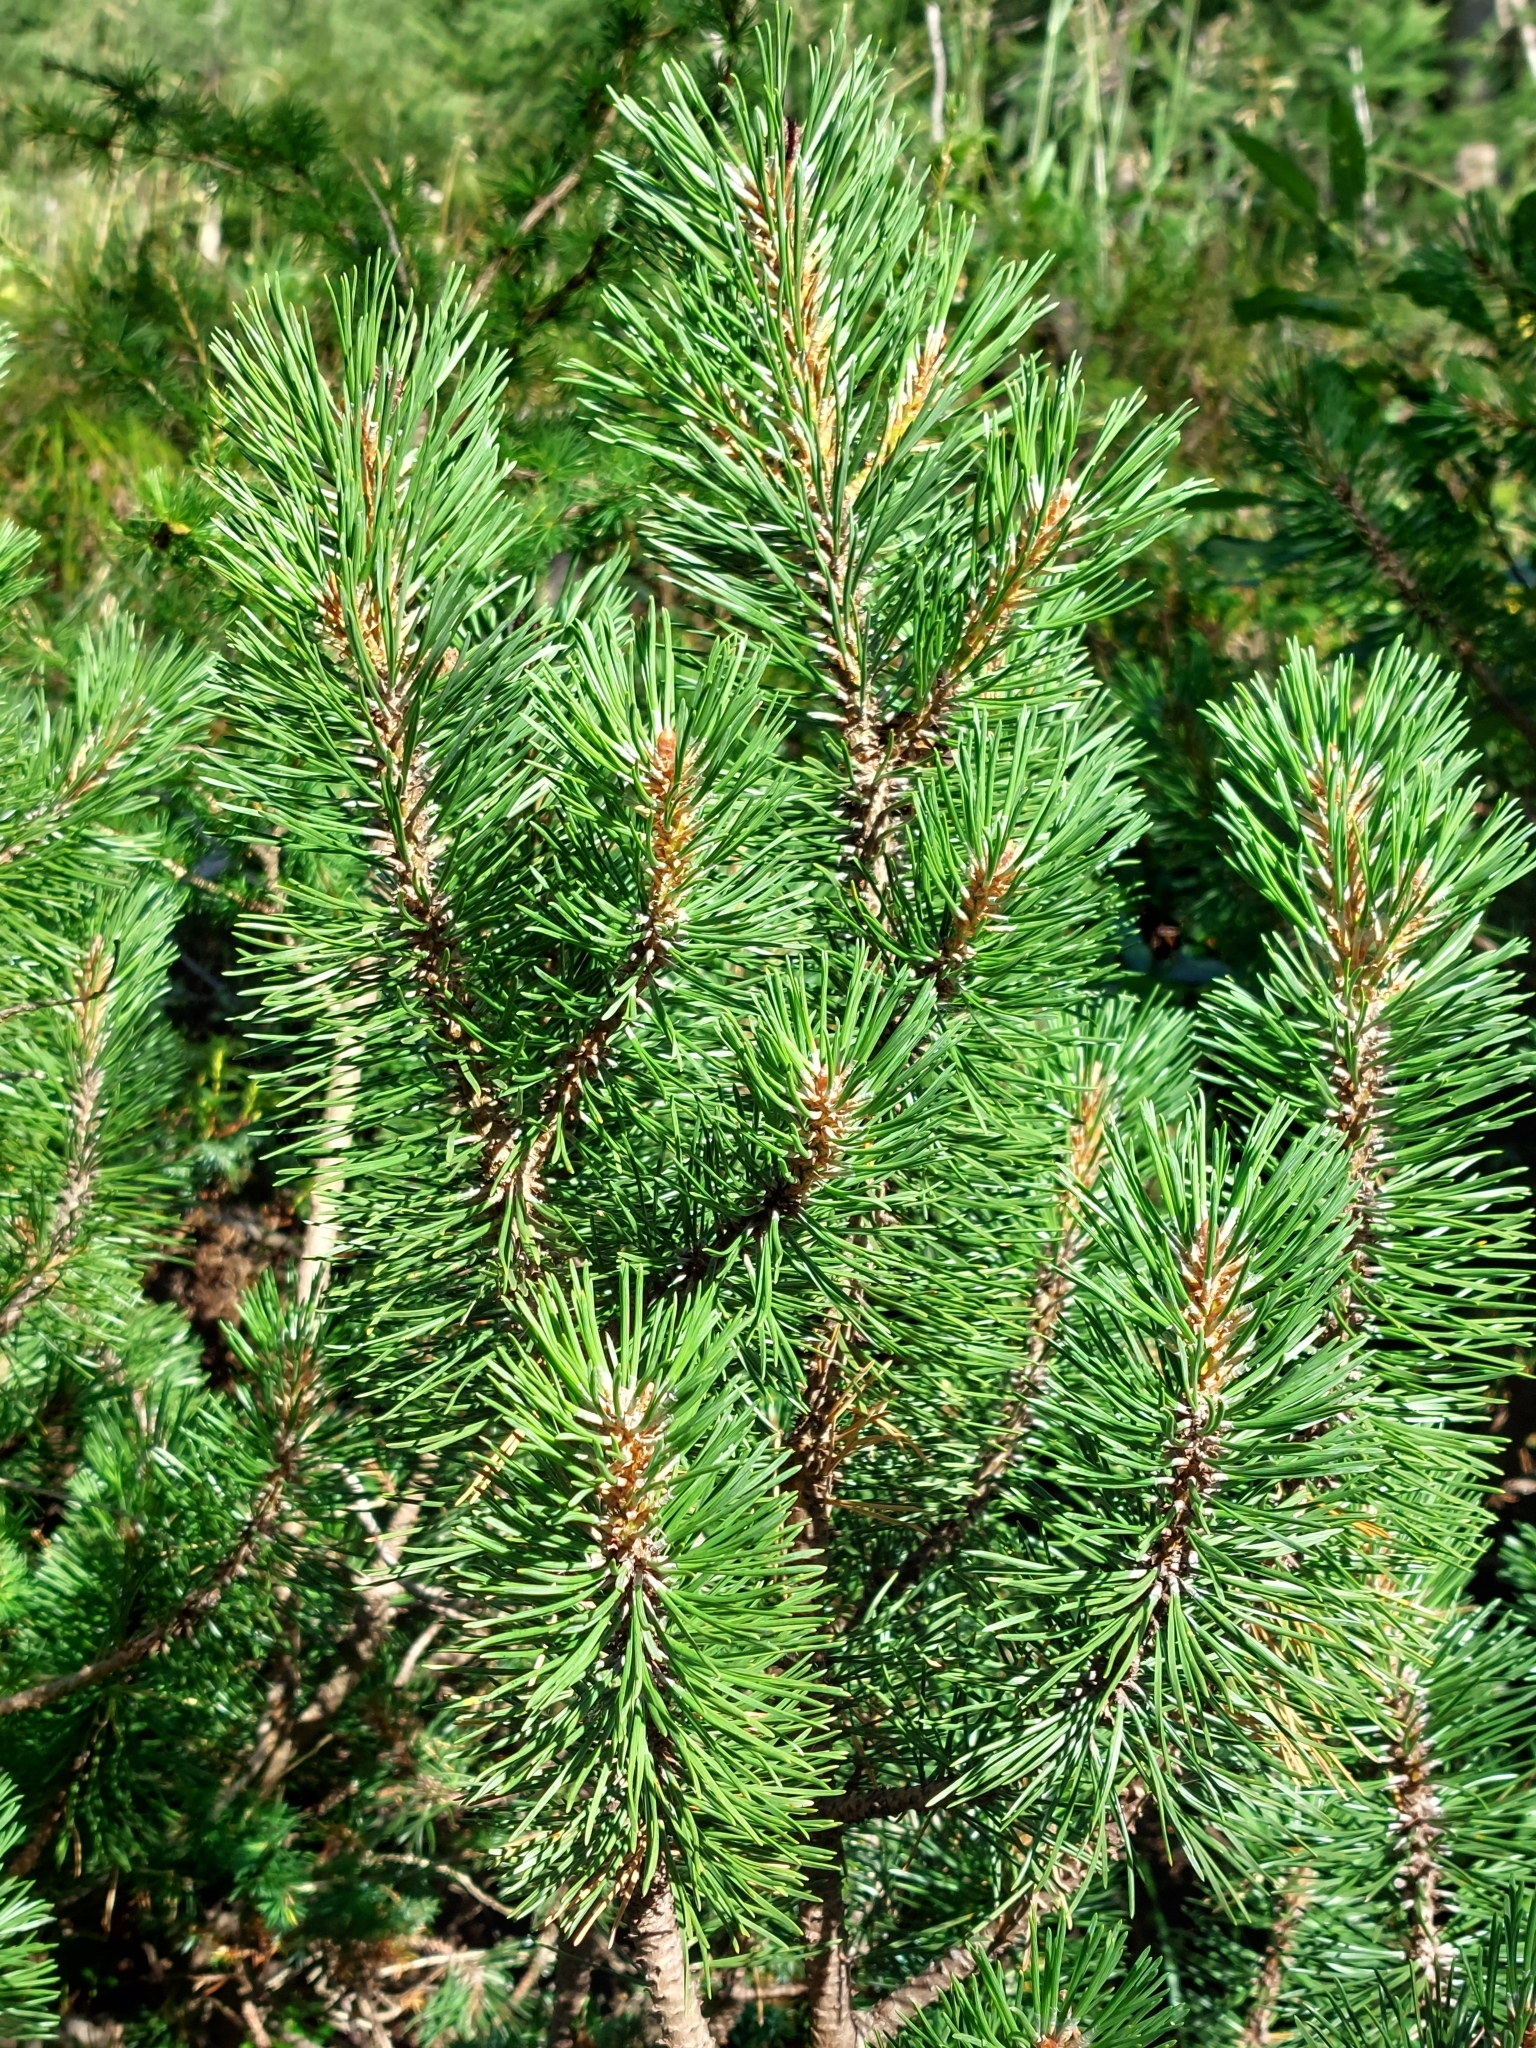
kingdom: Plantae
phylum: Tracheophyta
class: Pinopsida
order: Pinales
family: Pinaceae
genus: Pinus
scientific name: Pinus mugo
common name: Mugo pine
